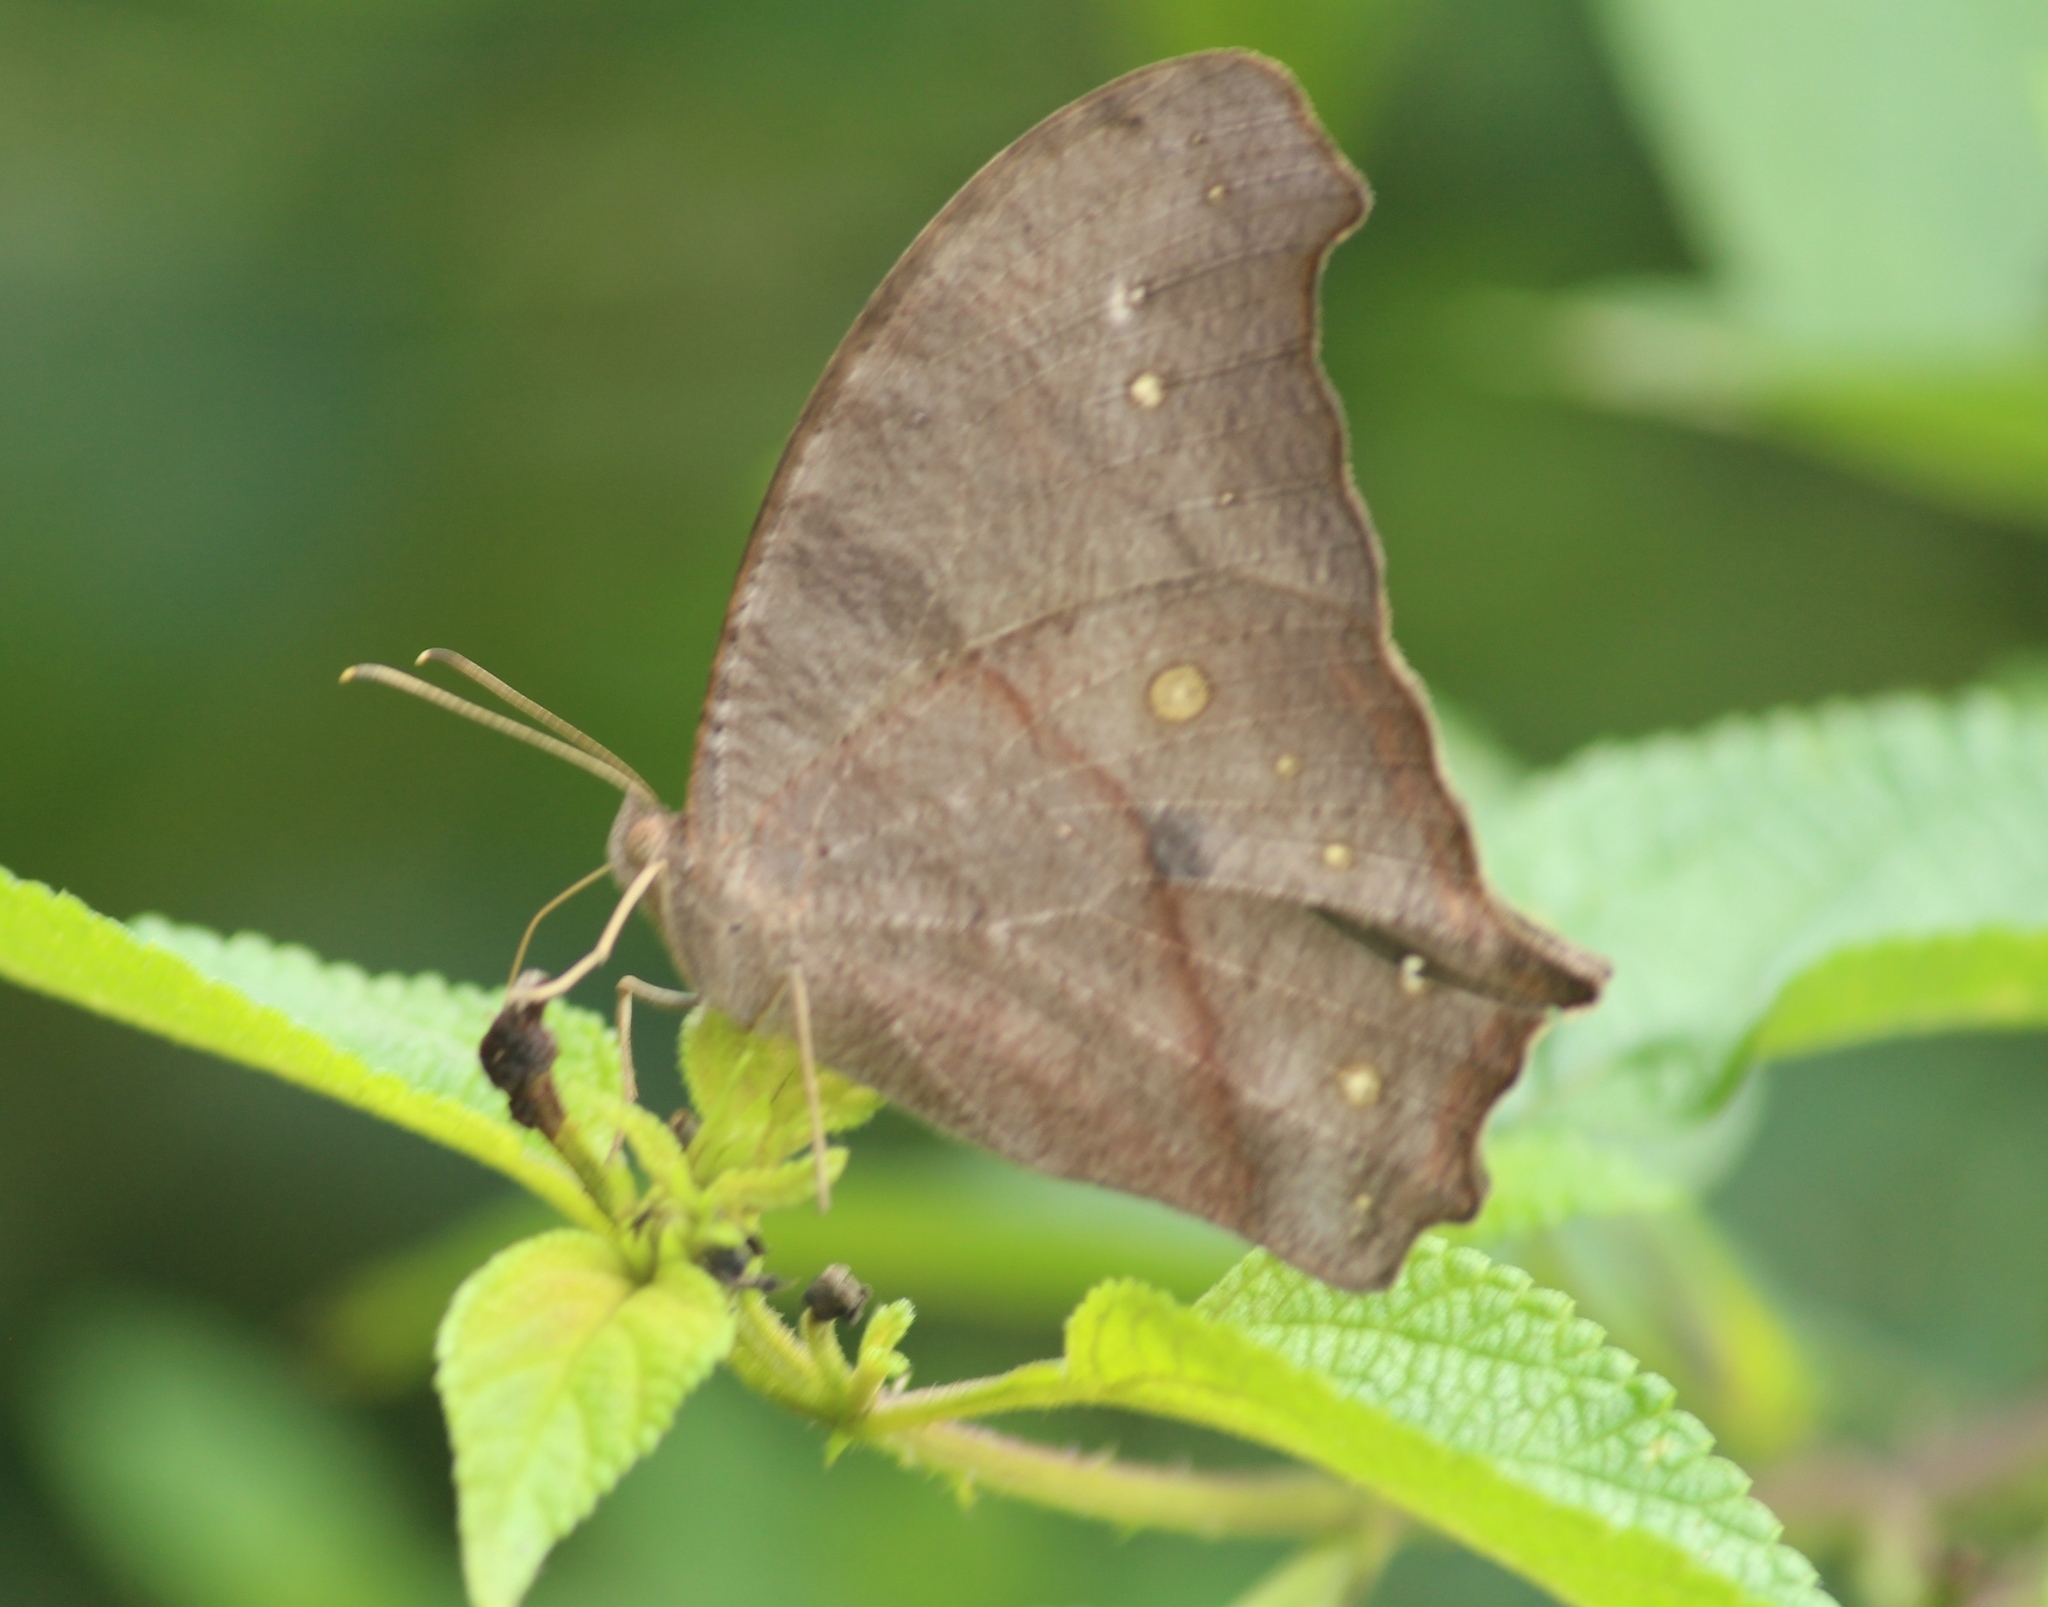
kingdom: Animalia
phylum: Arthropoda
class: Insecta
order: Lepidoptera
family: Nymphalidae
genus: Melanitis
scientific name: Melanitis leda
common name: Twilight brown
